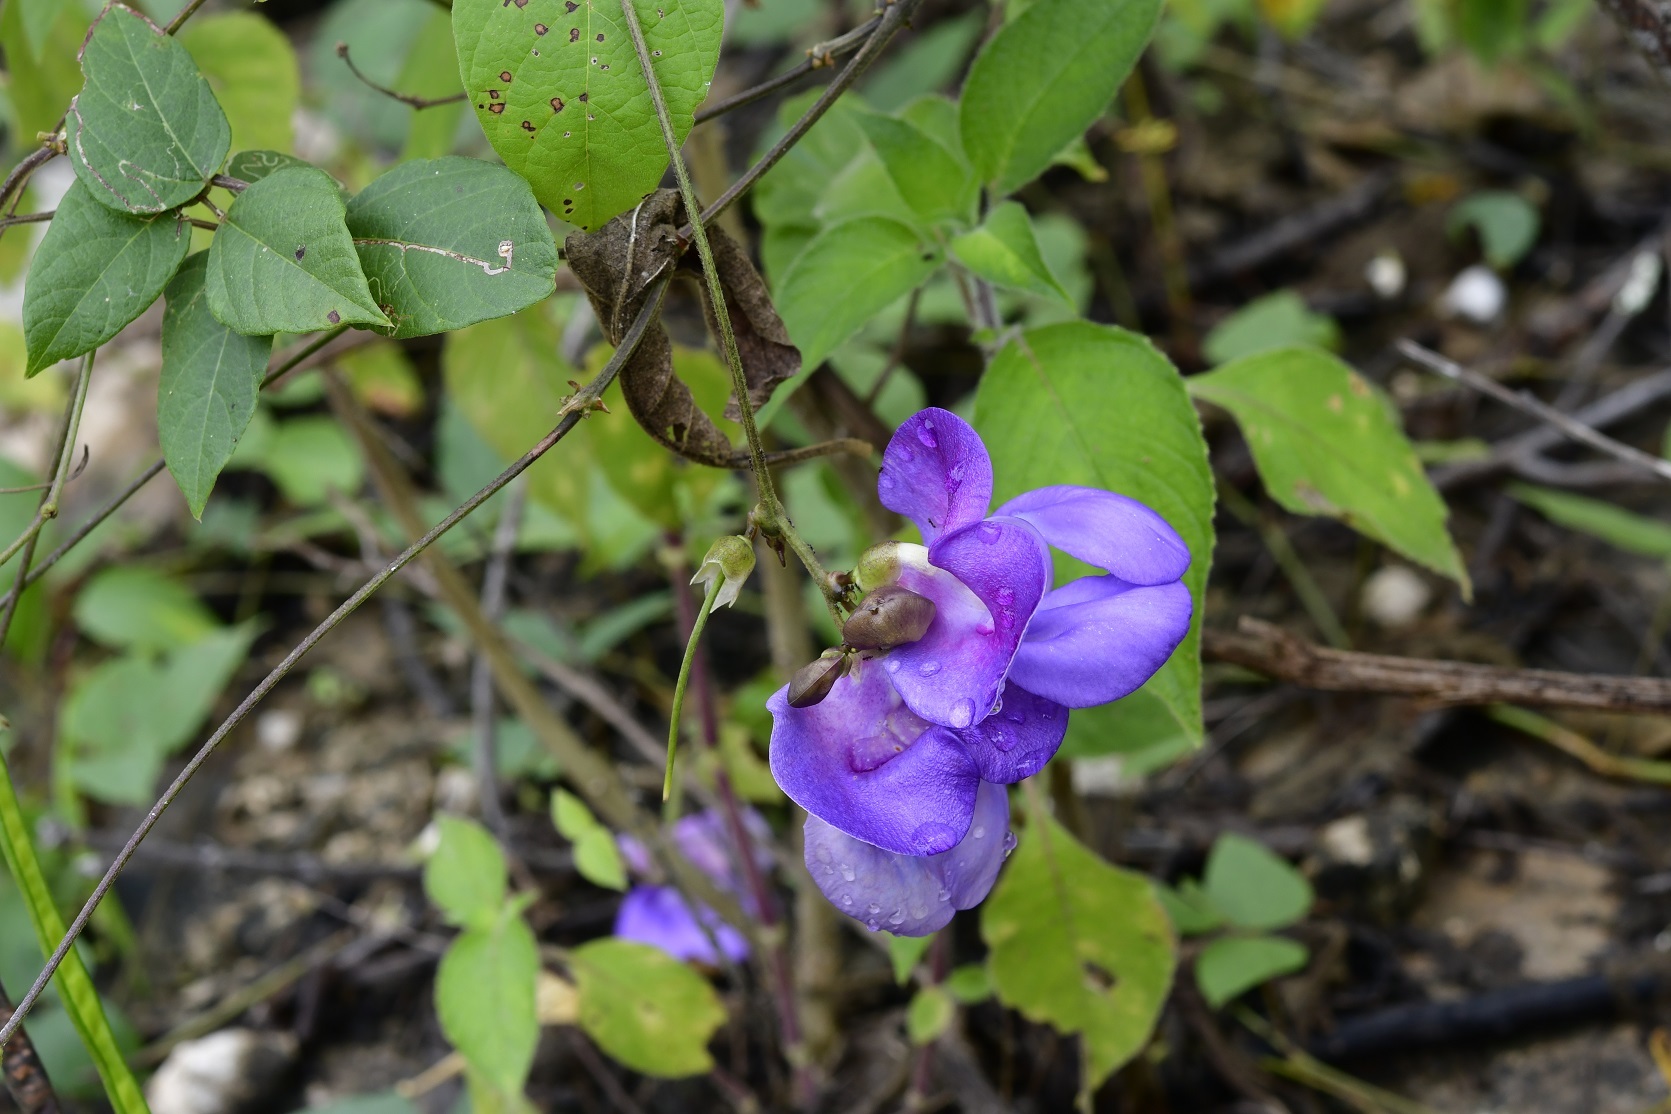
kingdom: Plantae
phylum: Tracheophyta
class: Magnoliopsida
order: Fabales
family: Fabaceae
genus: Vigna
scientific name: Vigna vexillata
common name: Zombi pea
